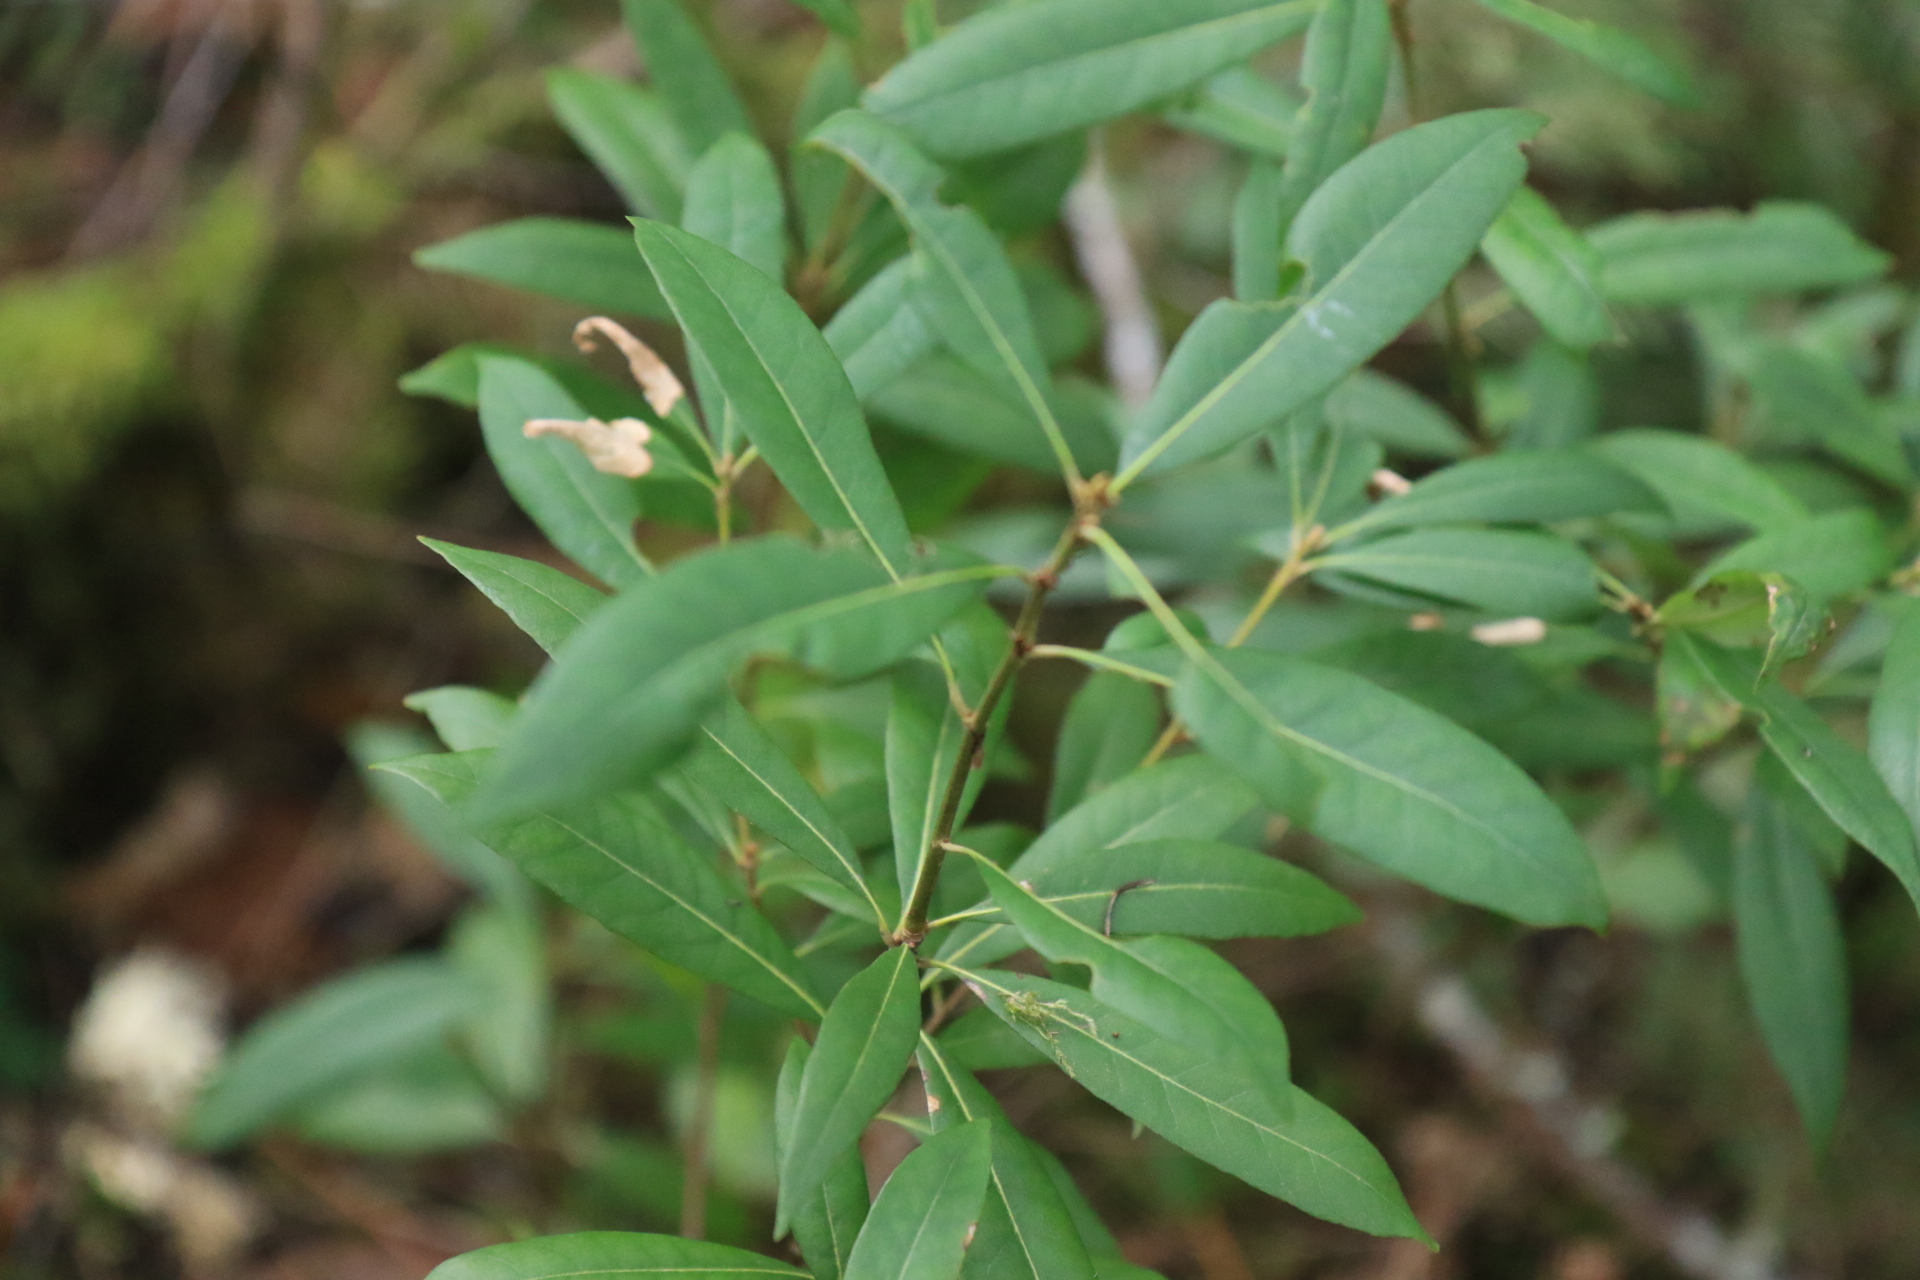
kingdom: Plantae
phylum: Tracheophyta
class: Magnoliopsida
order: Fagales
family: Fagaceae
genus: Chrysolepis
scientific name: Chrysolepis chrysophylla
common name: Giant chinquapin
